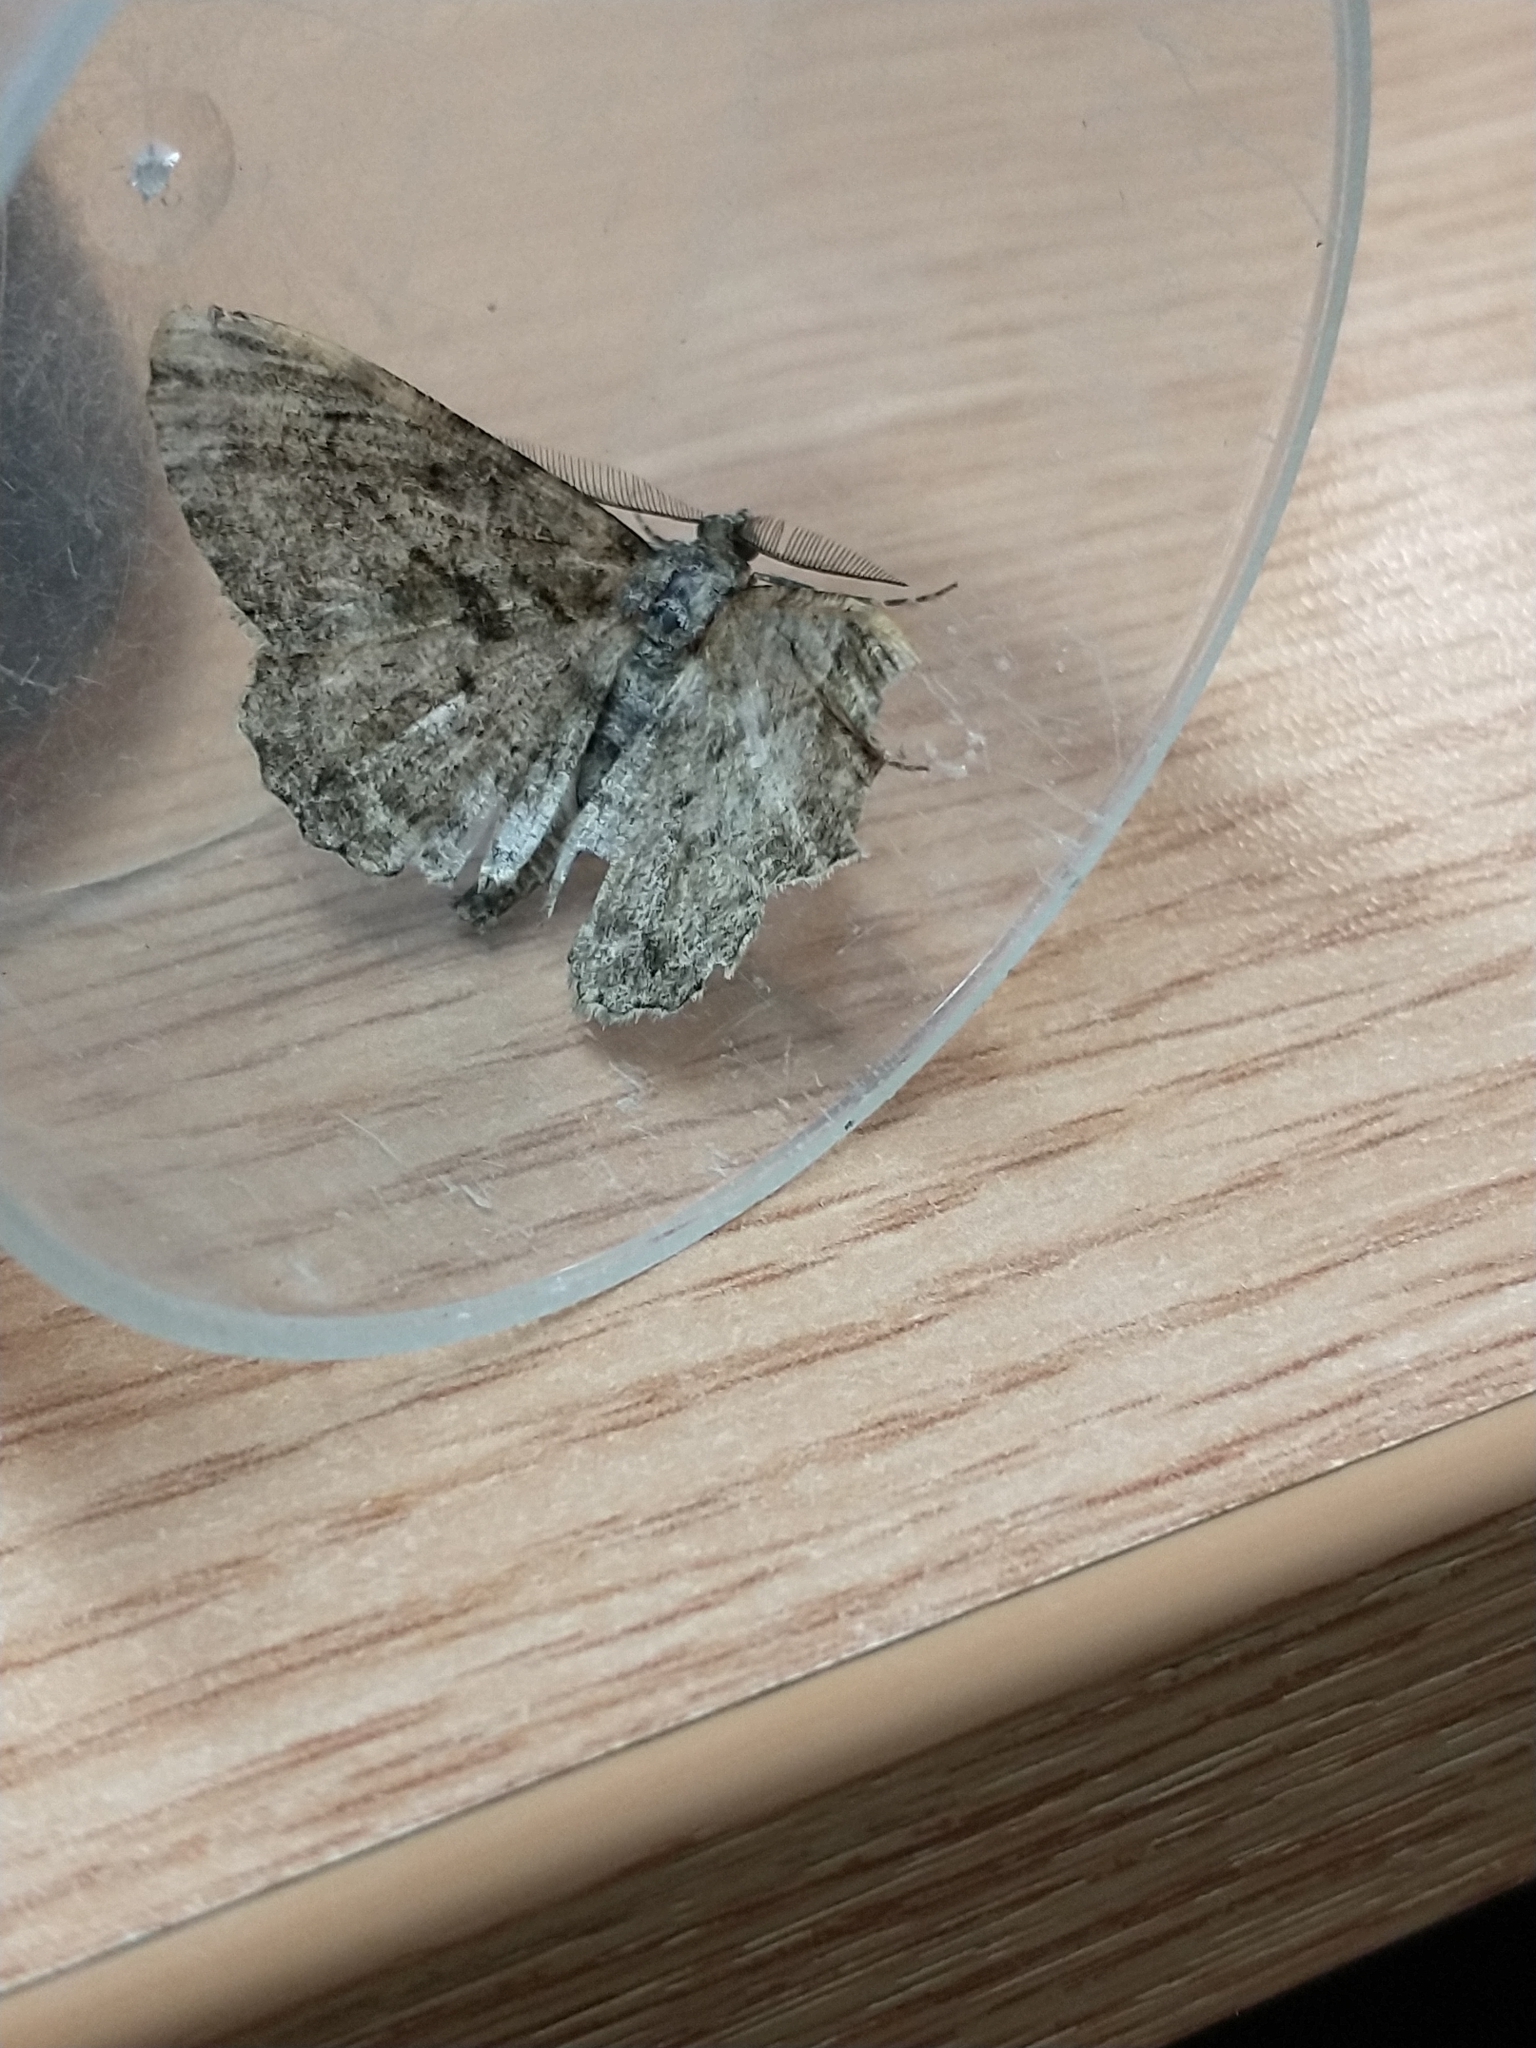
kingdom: Animalia
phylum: Arthropoda
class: Insecta
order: Lepidoptera
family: Geometridae
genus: Peribatodes
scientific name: Peribatodes rhomboidaria
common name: Willow beauty
